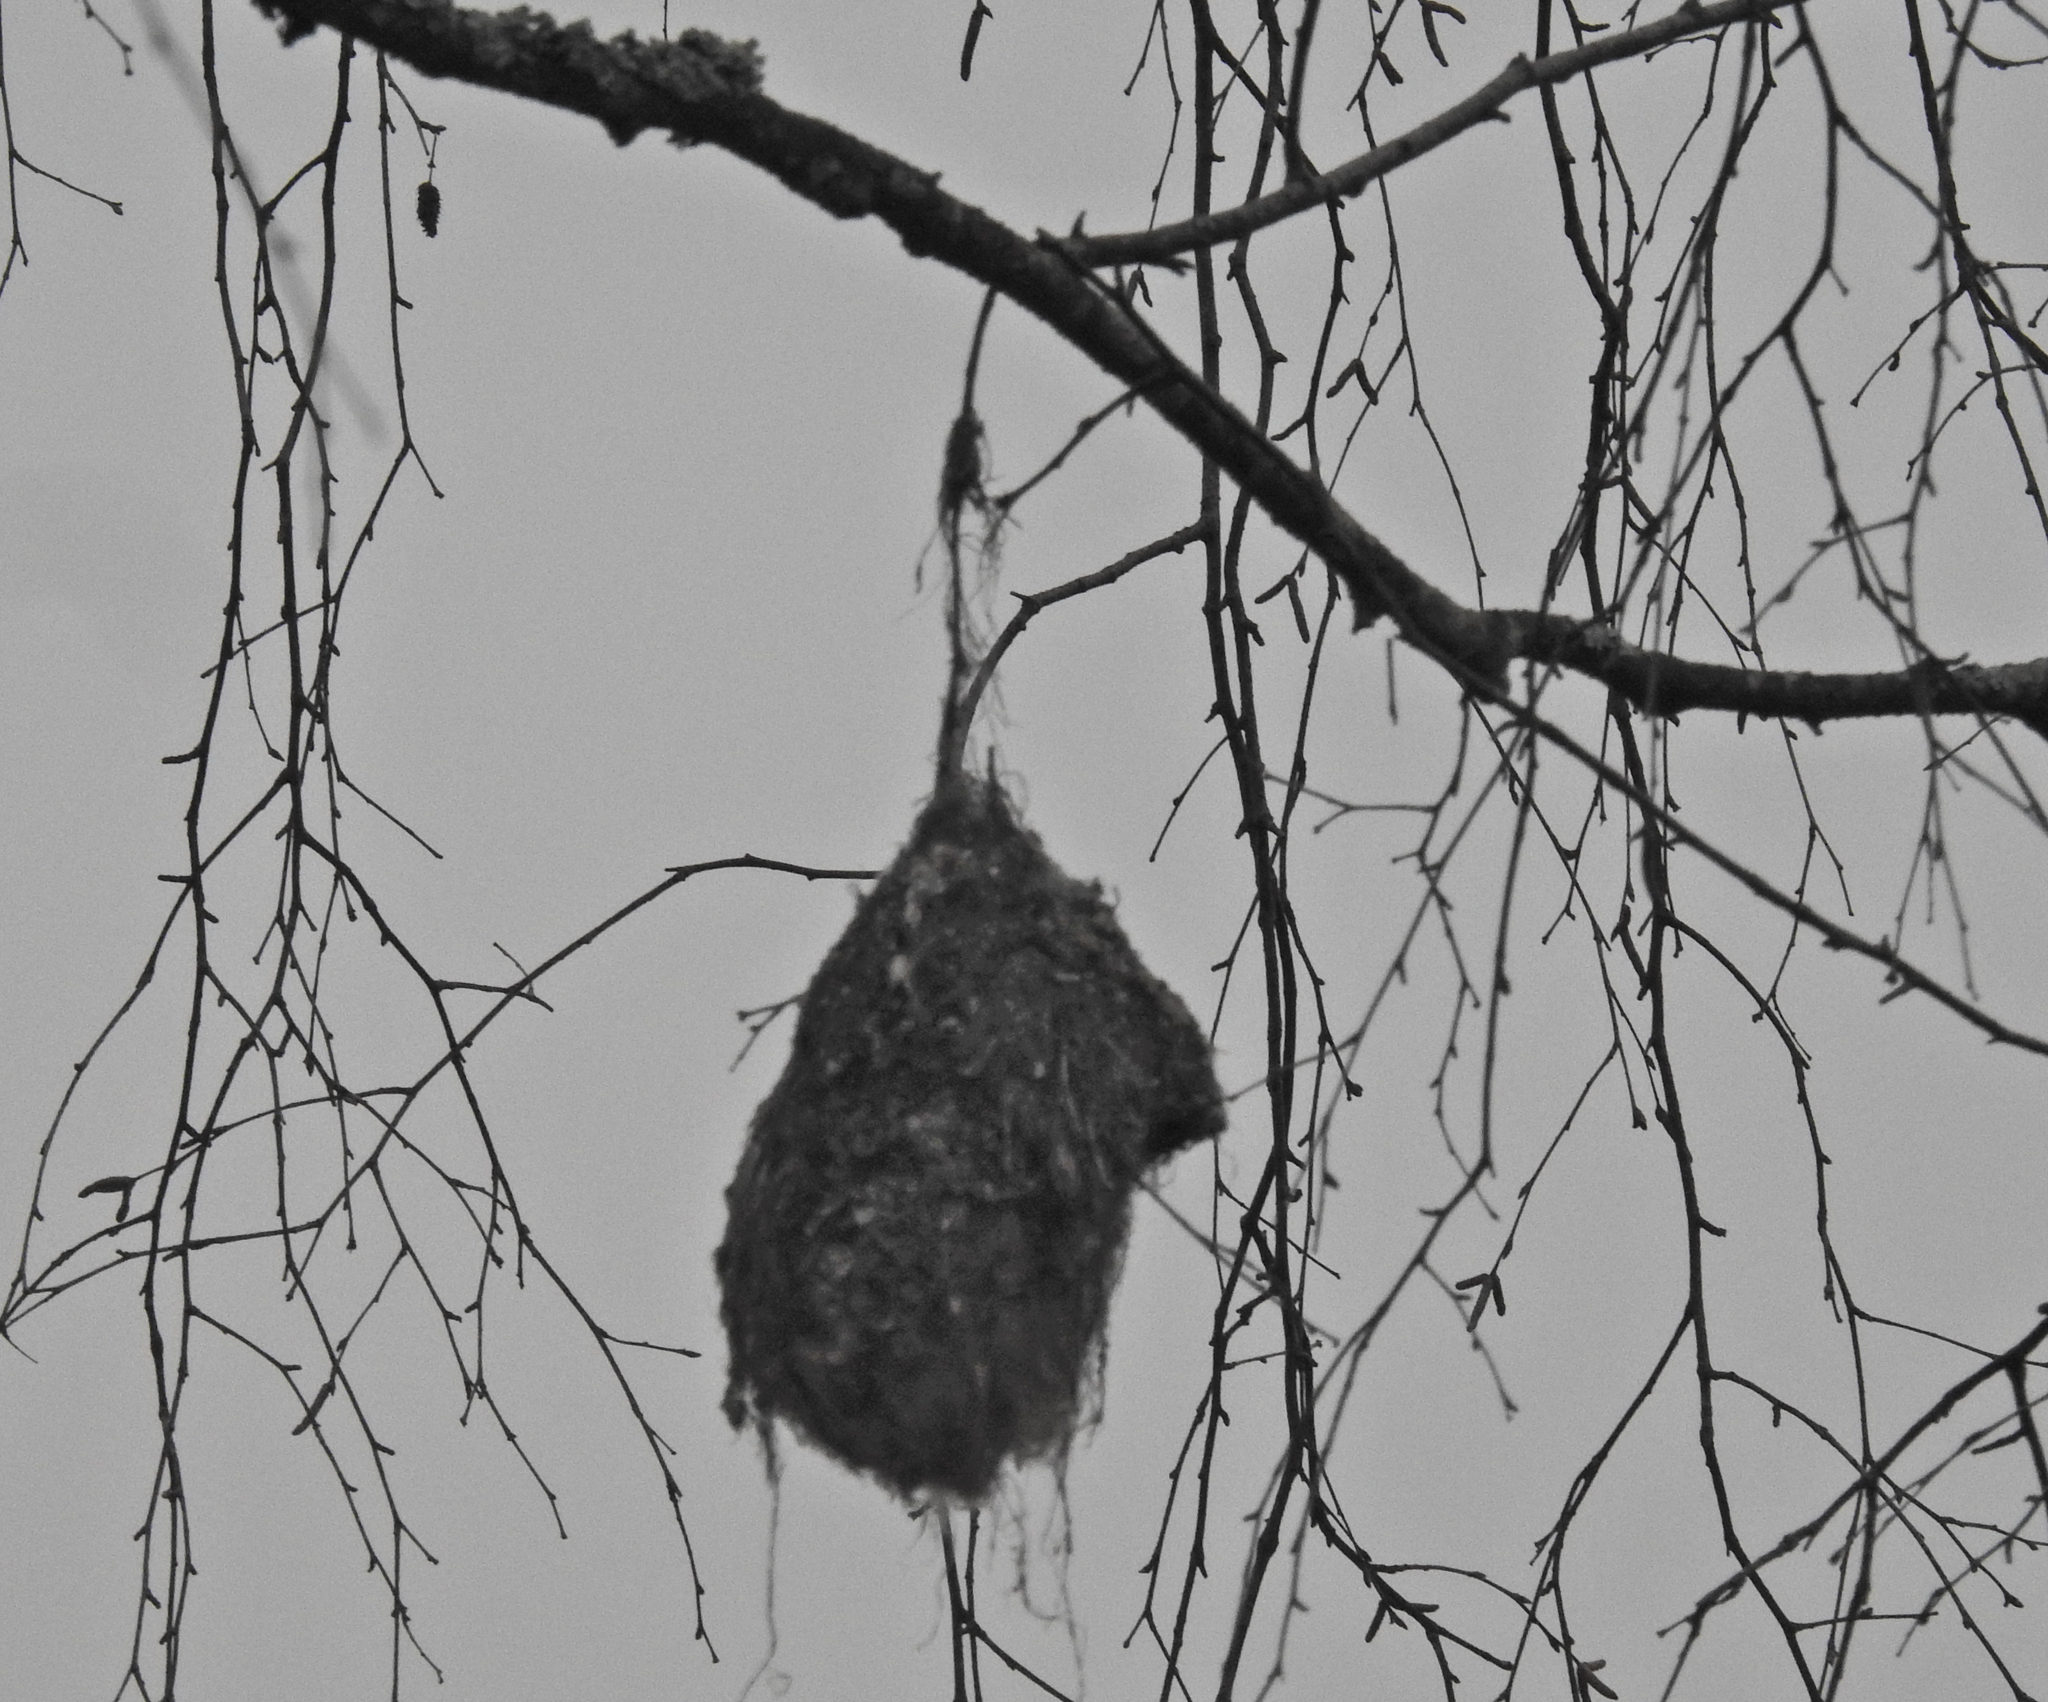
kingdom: Animalia
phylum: Chordata
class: Aves
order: Passeriformes
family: Remizidae
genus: Remiz
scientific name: Remiz pendulinus
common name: Eurasian penduline tit
